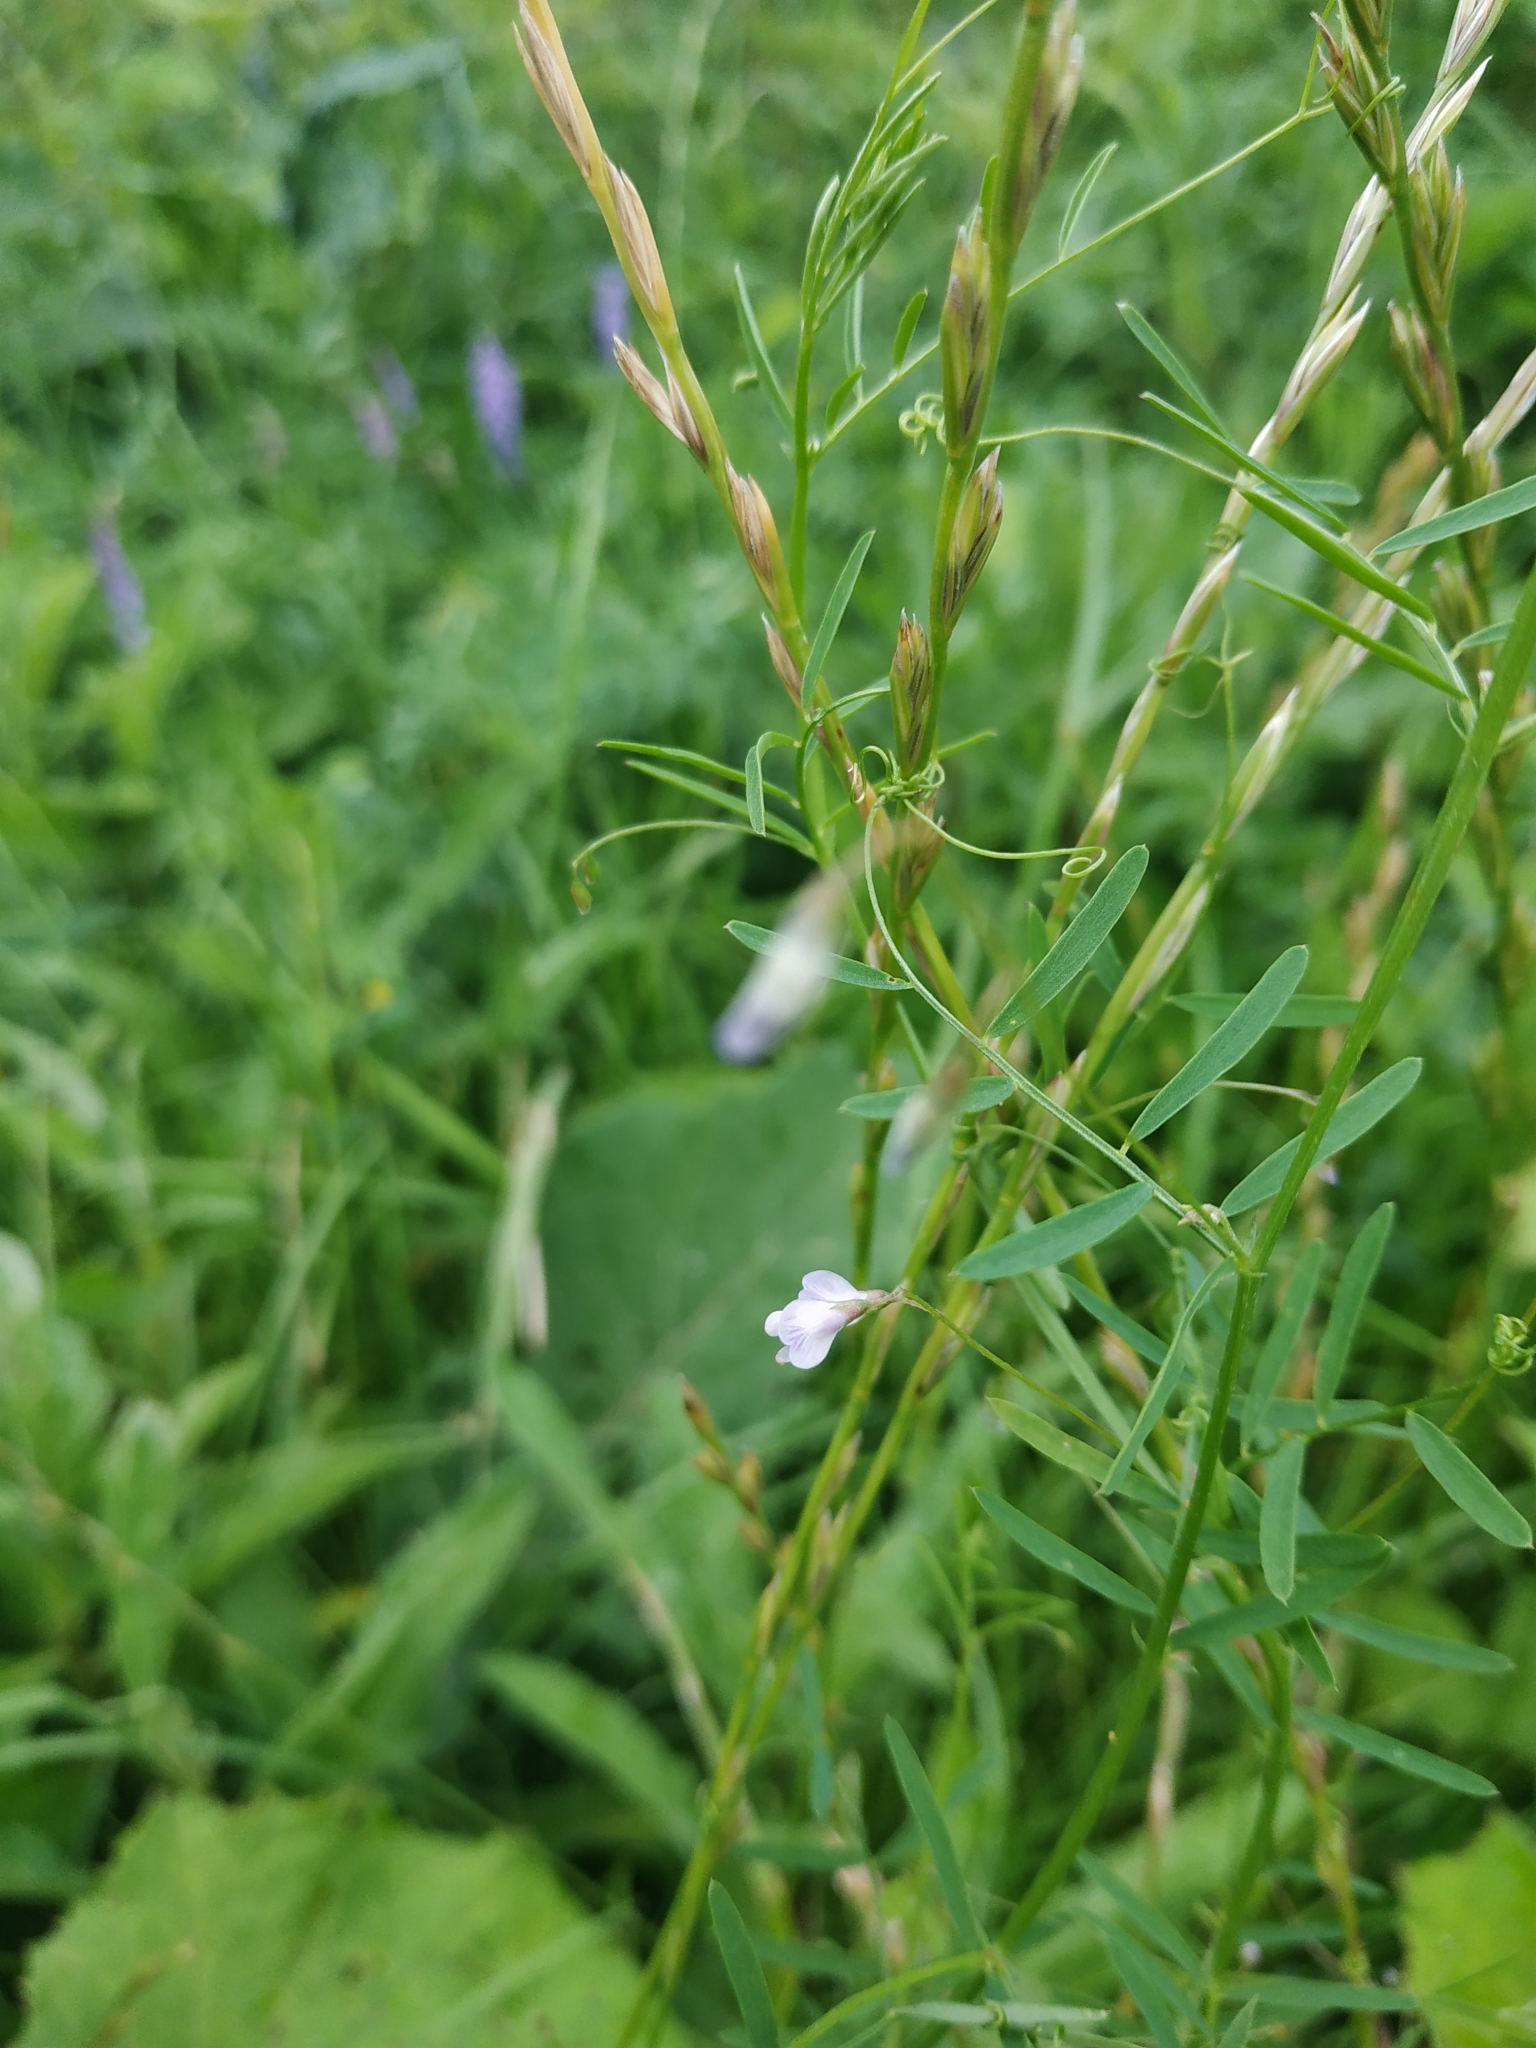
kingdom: Plantae
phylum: Tracheophyta
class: Magnoliopsida
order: Fabales
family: Fabaceae
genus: Vicia
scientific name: Vicia tetrasperma
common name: Smooth tare
